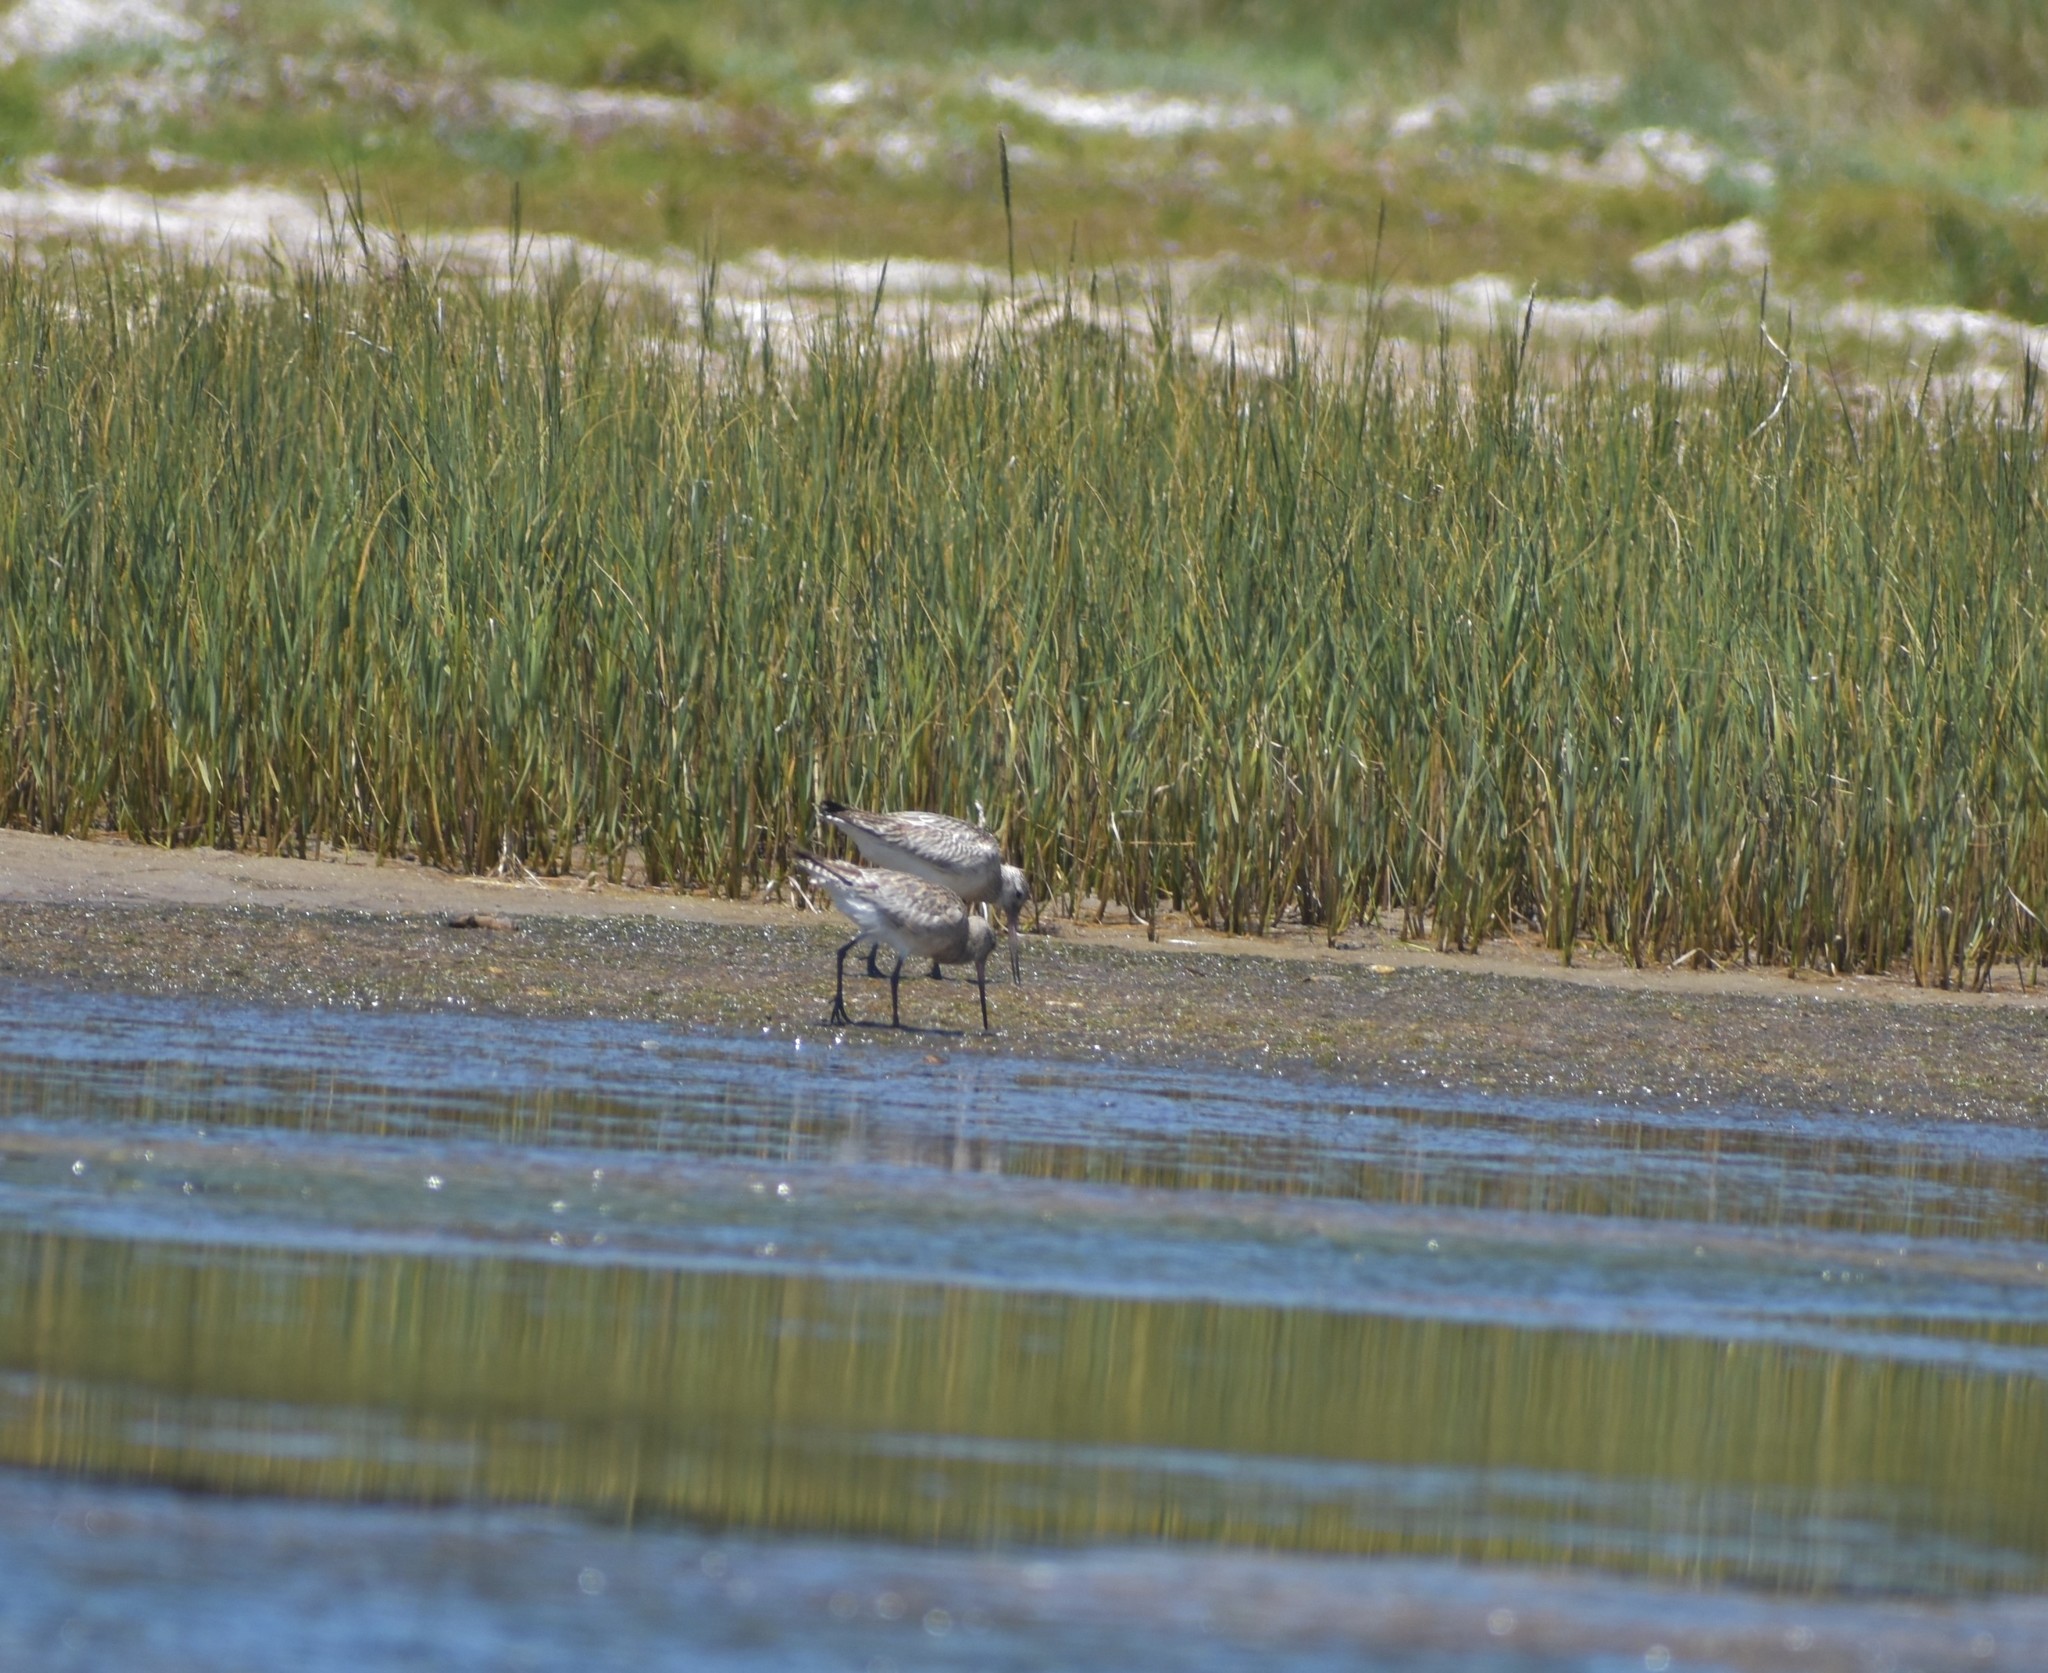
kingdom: Animalia
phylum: Chordata
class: Aves
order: Charadriiformes
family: Scolopacidae
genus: Limosa
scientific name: Limosa lapponica
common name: Bar-tailed godwit
